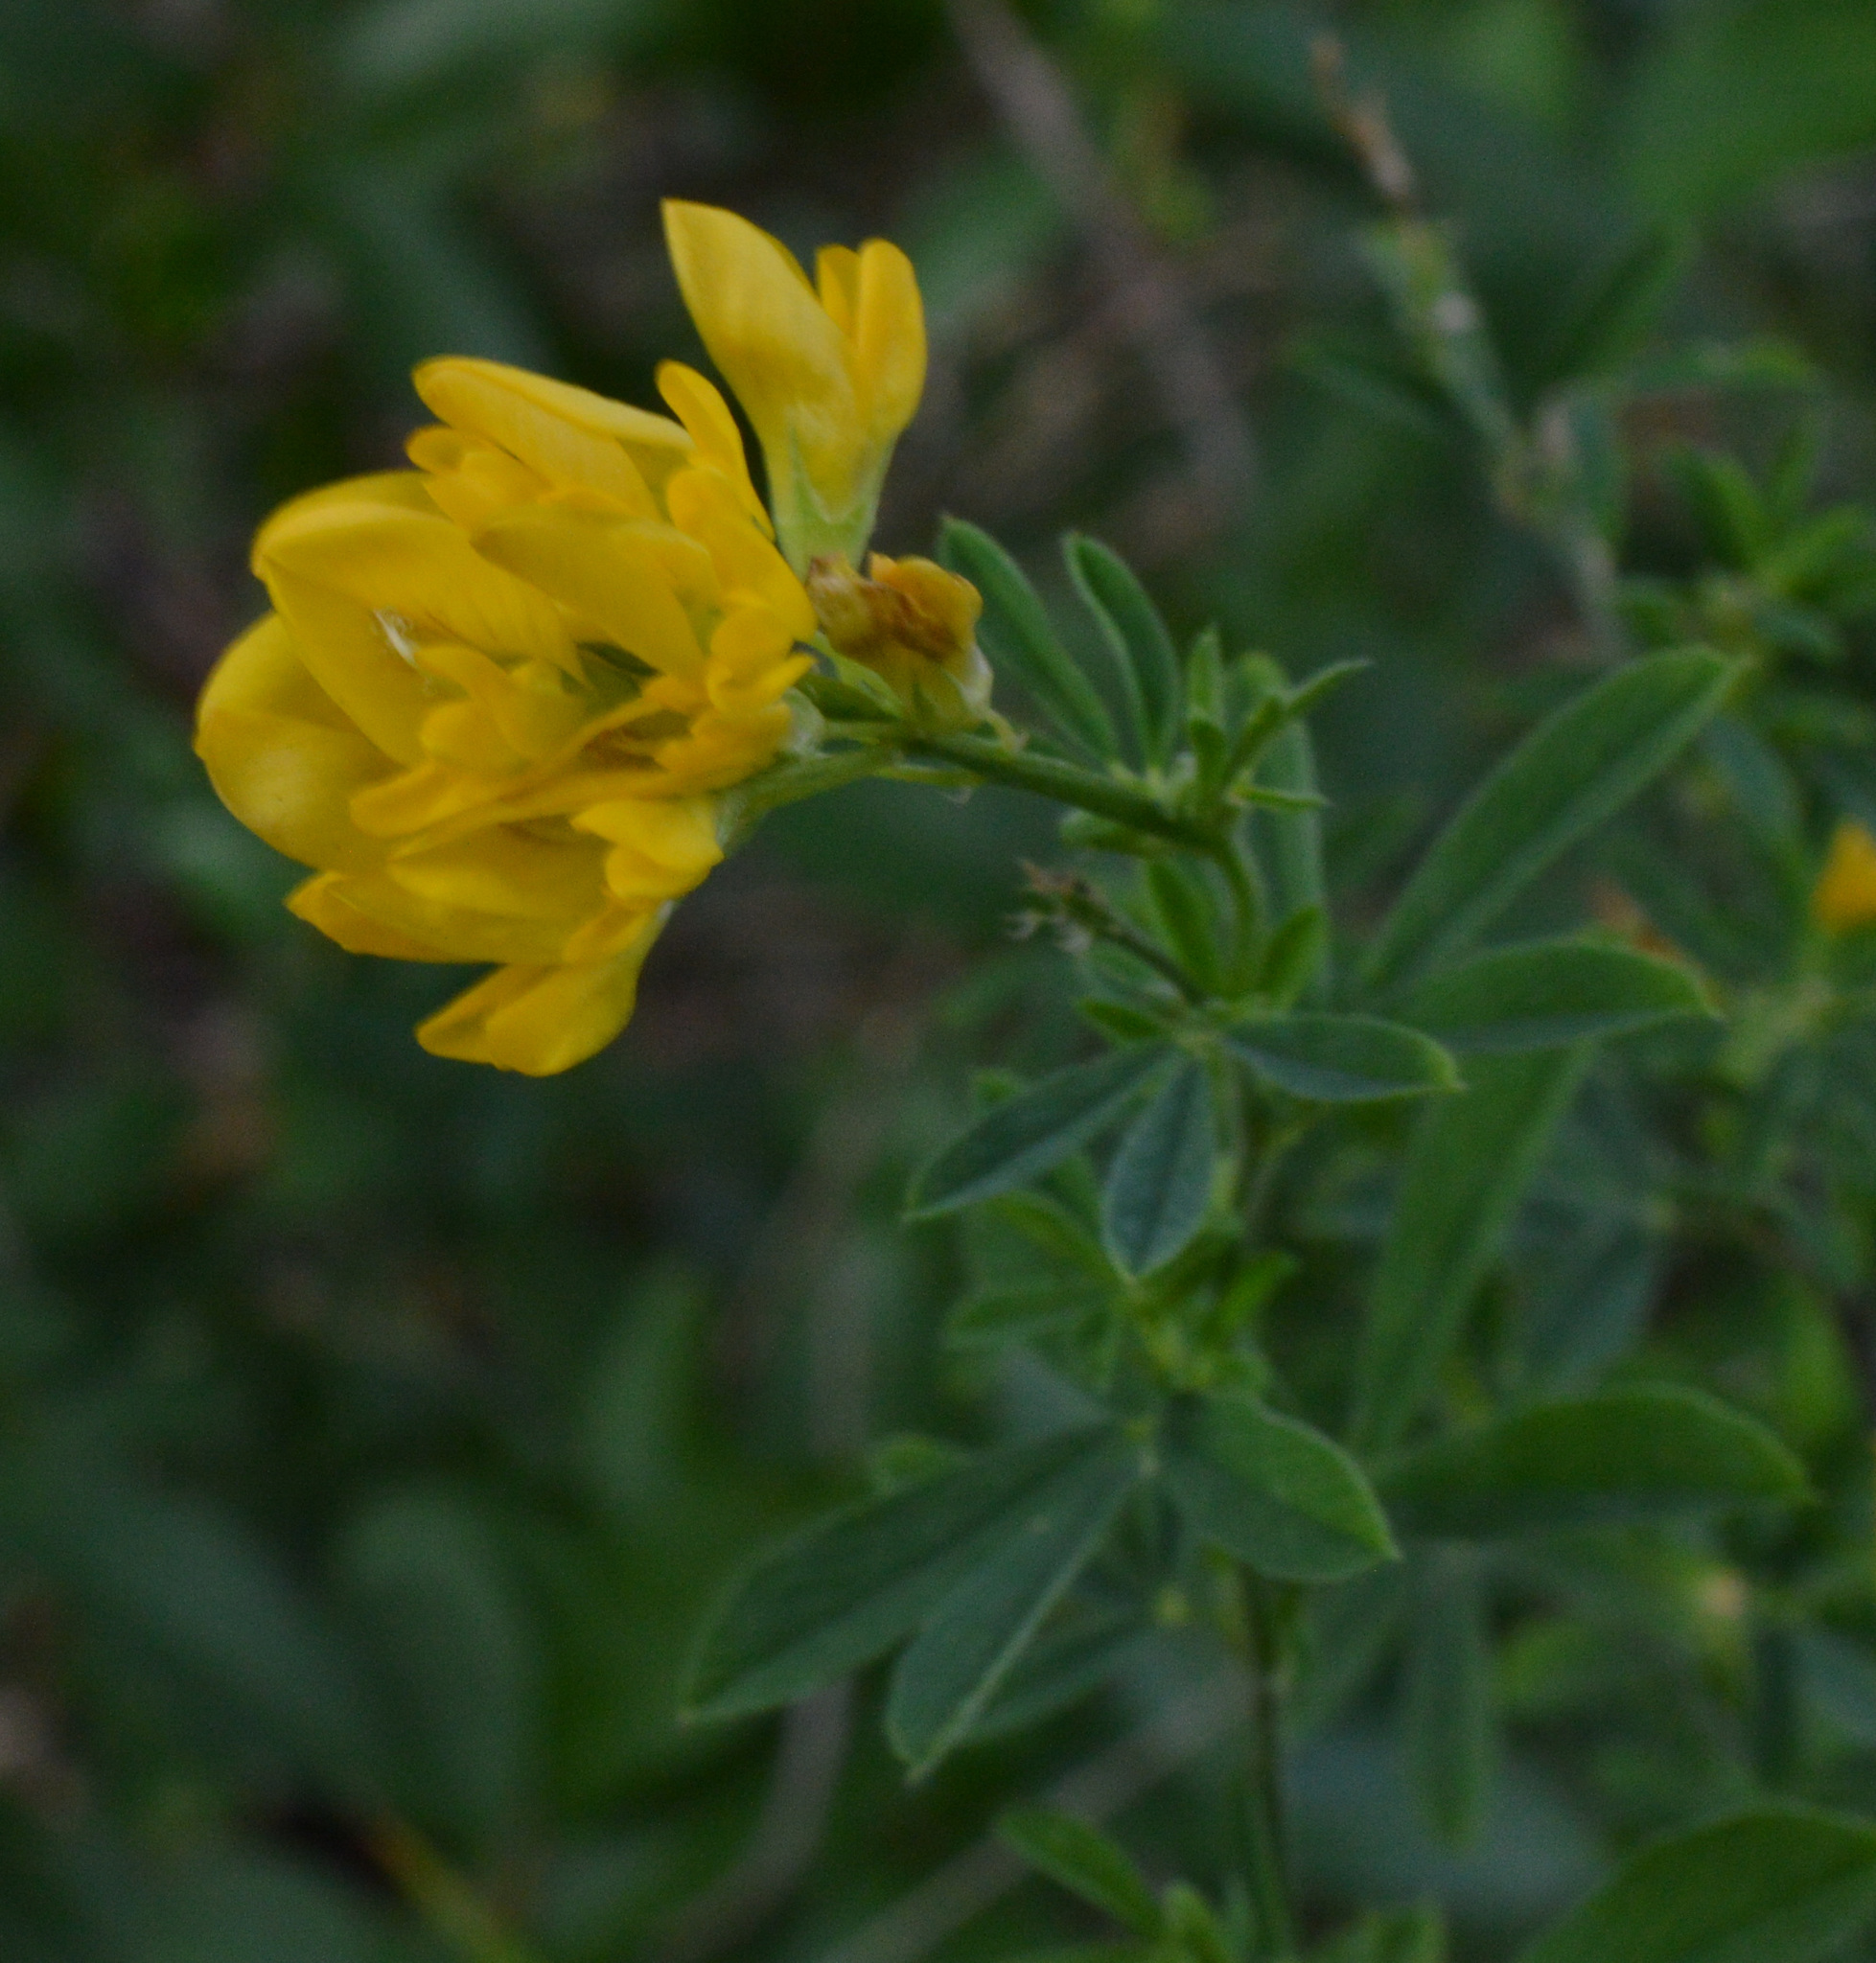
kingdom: Plantae
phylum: Tracheophyta
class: Magnoliopsida
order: Fabales
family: Fabaceae
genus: Medicago
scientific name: Medicago falcata
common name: Sickle medick
